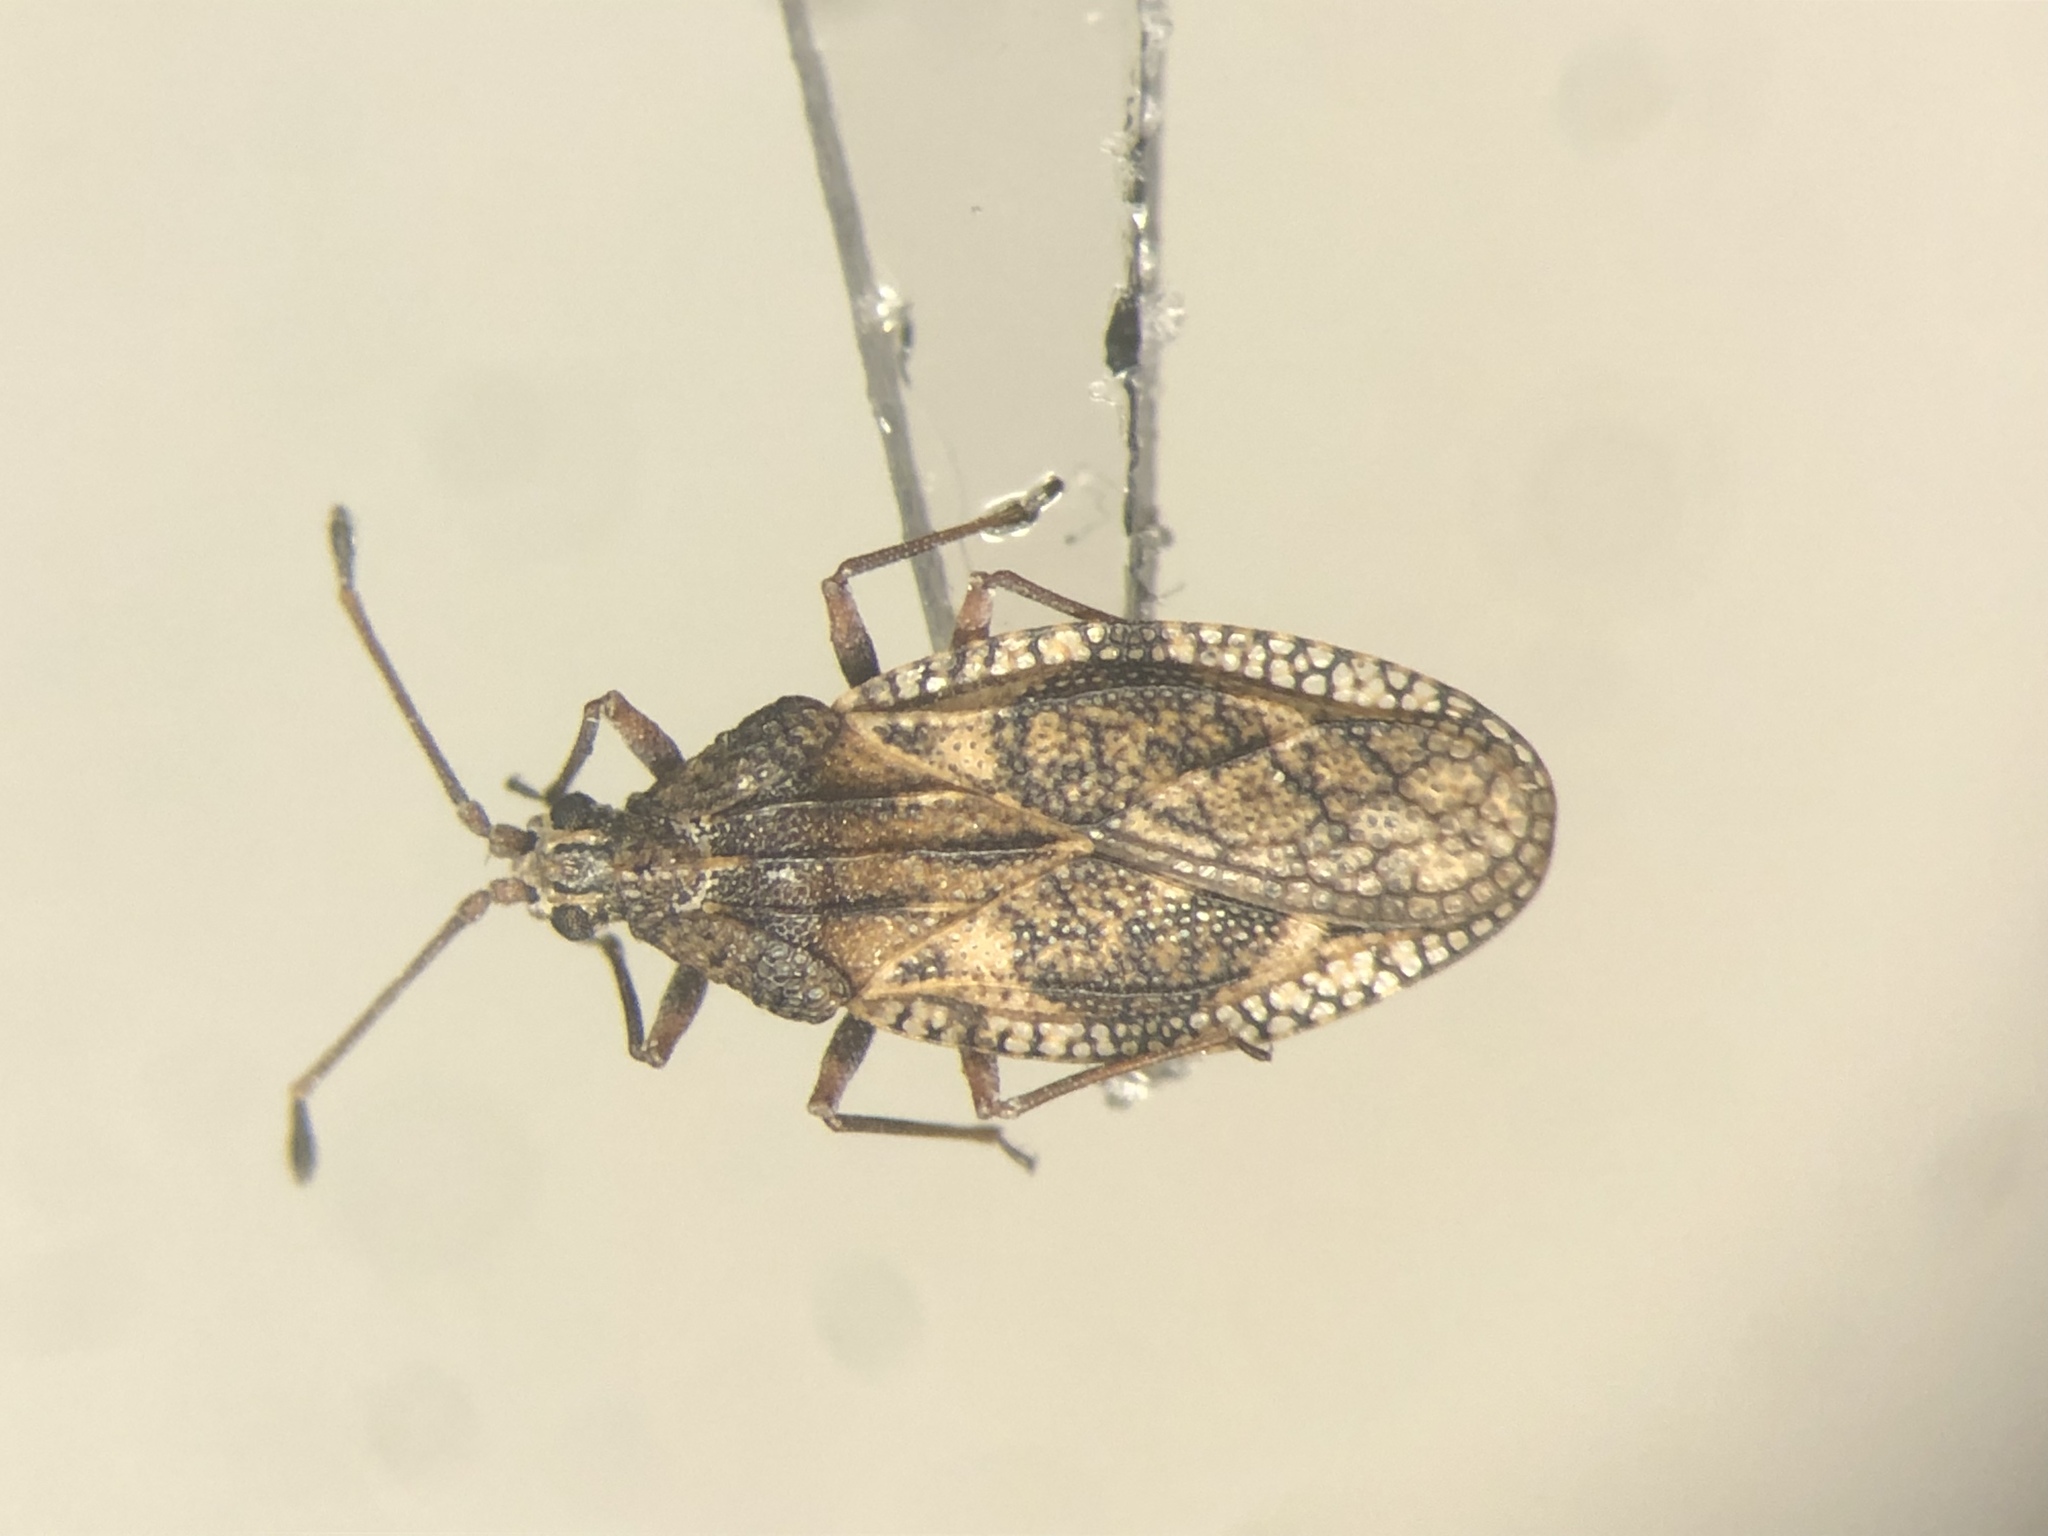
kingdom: Animalia
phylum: Arthropoda
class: Insecta
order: Hemiptera
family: Tingidae
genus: Physatocheila
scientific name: Physatocheila variegata
